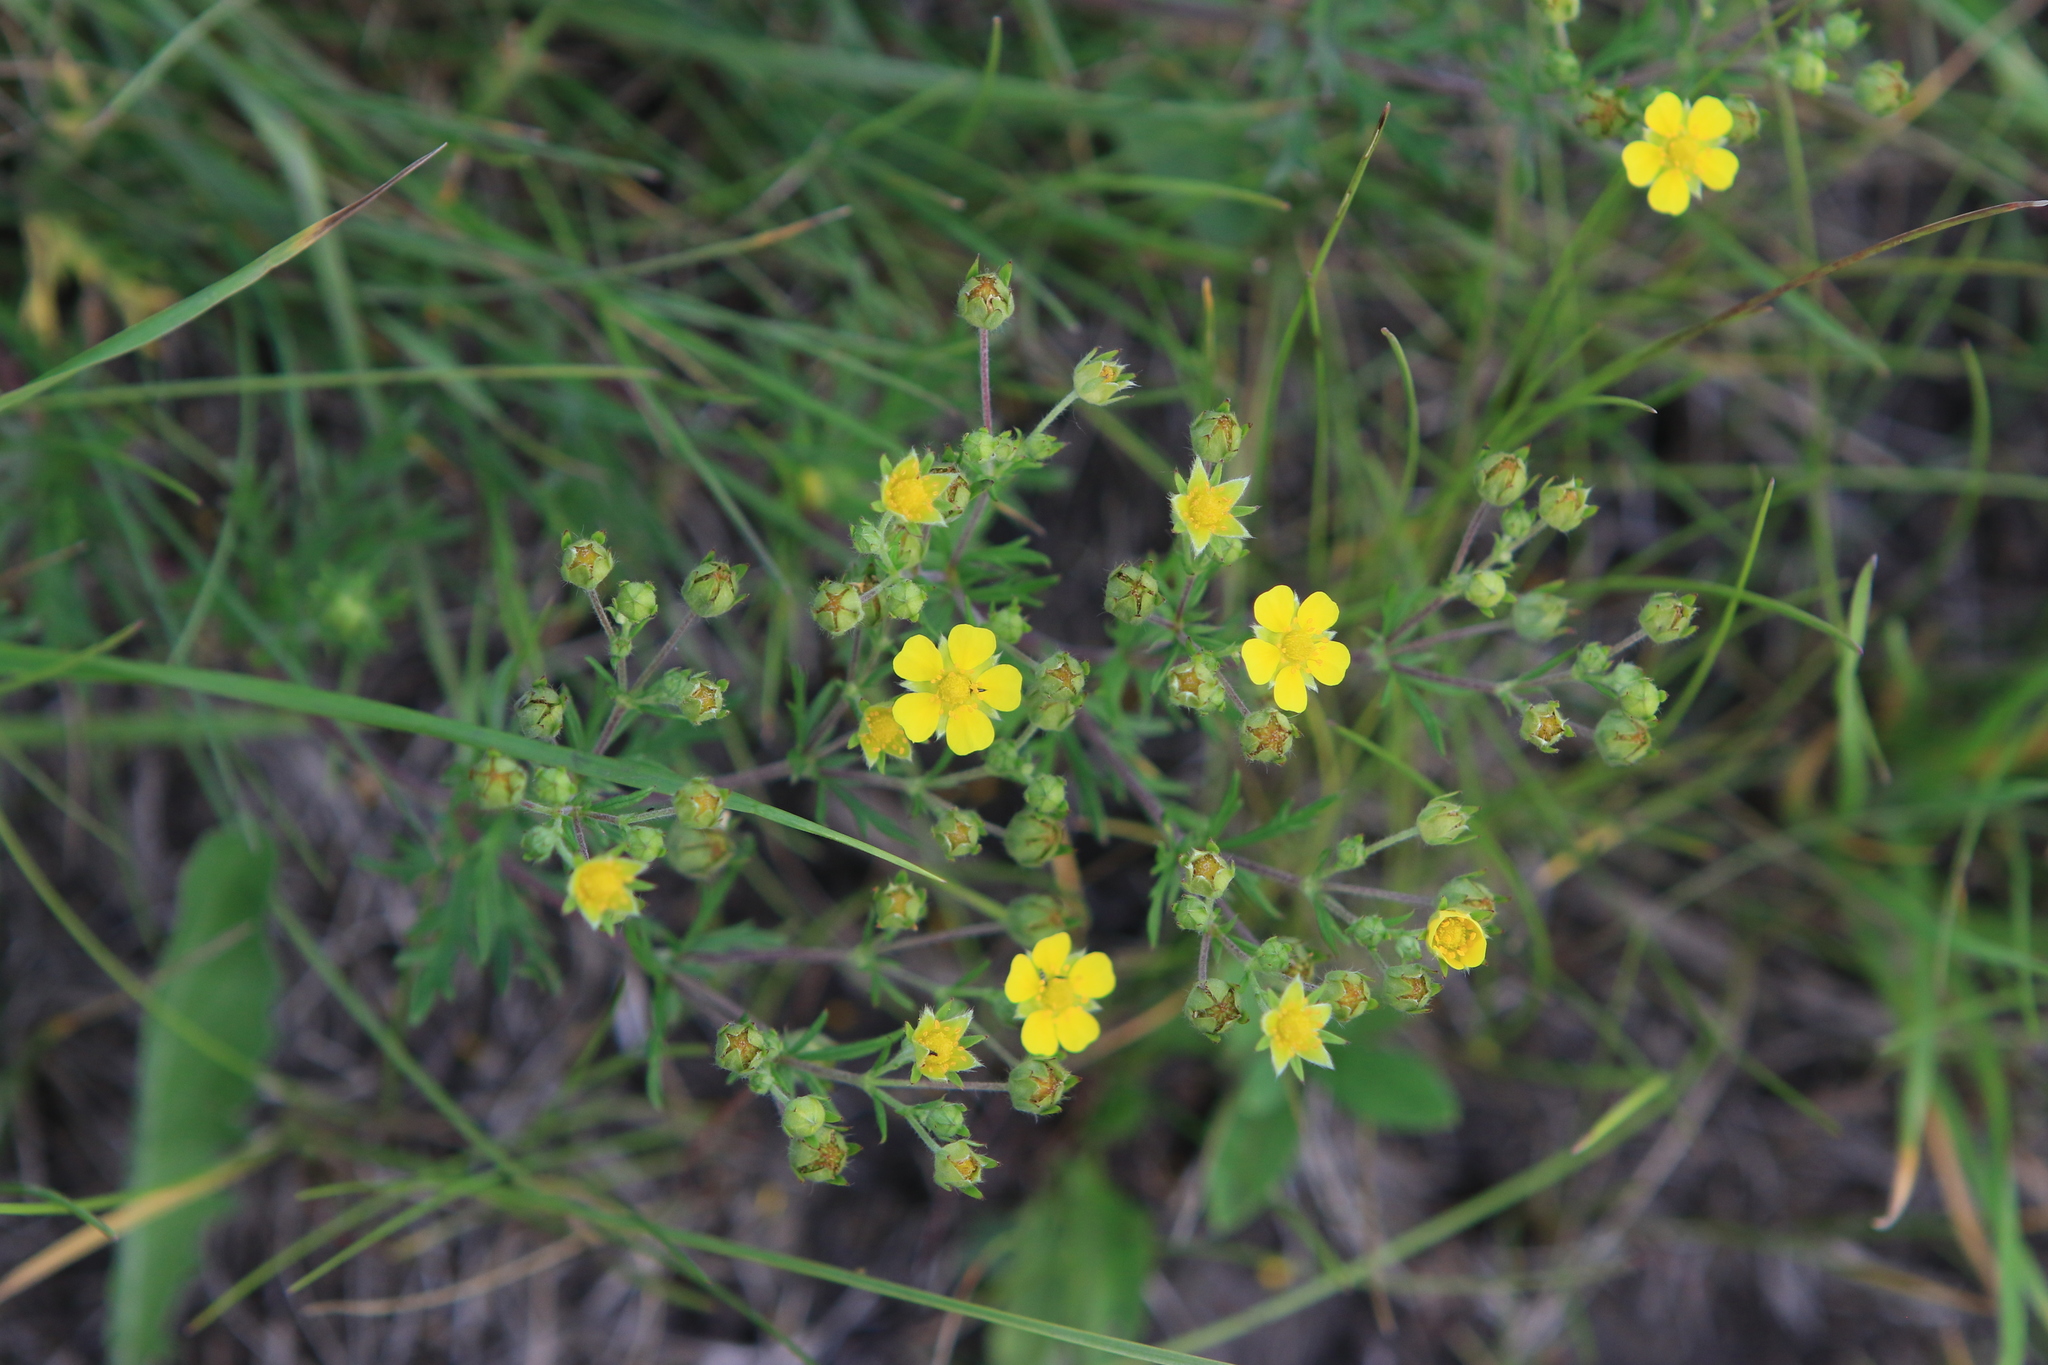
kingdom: Plantae
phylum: Tracheophyta
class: Magnoliopsida
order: Rosales
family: Rosaceae
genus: Potentilla
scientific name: Potentilla argentea
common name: Hoary cinquefoil
